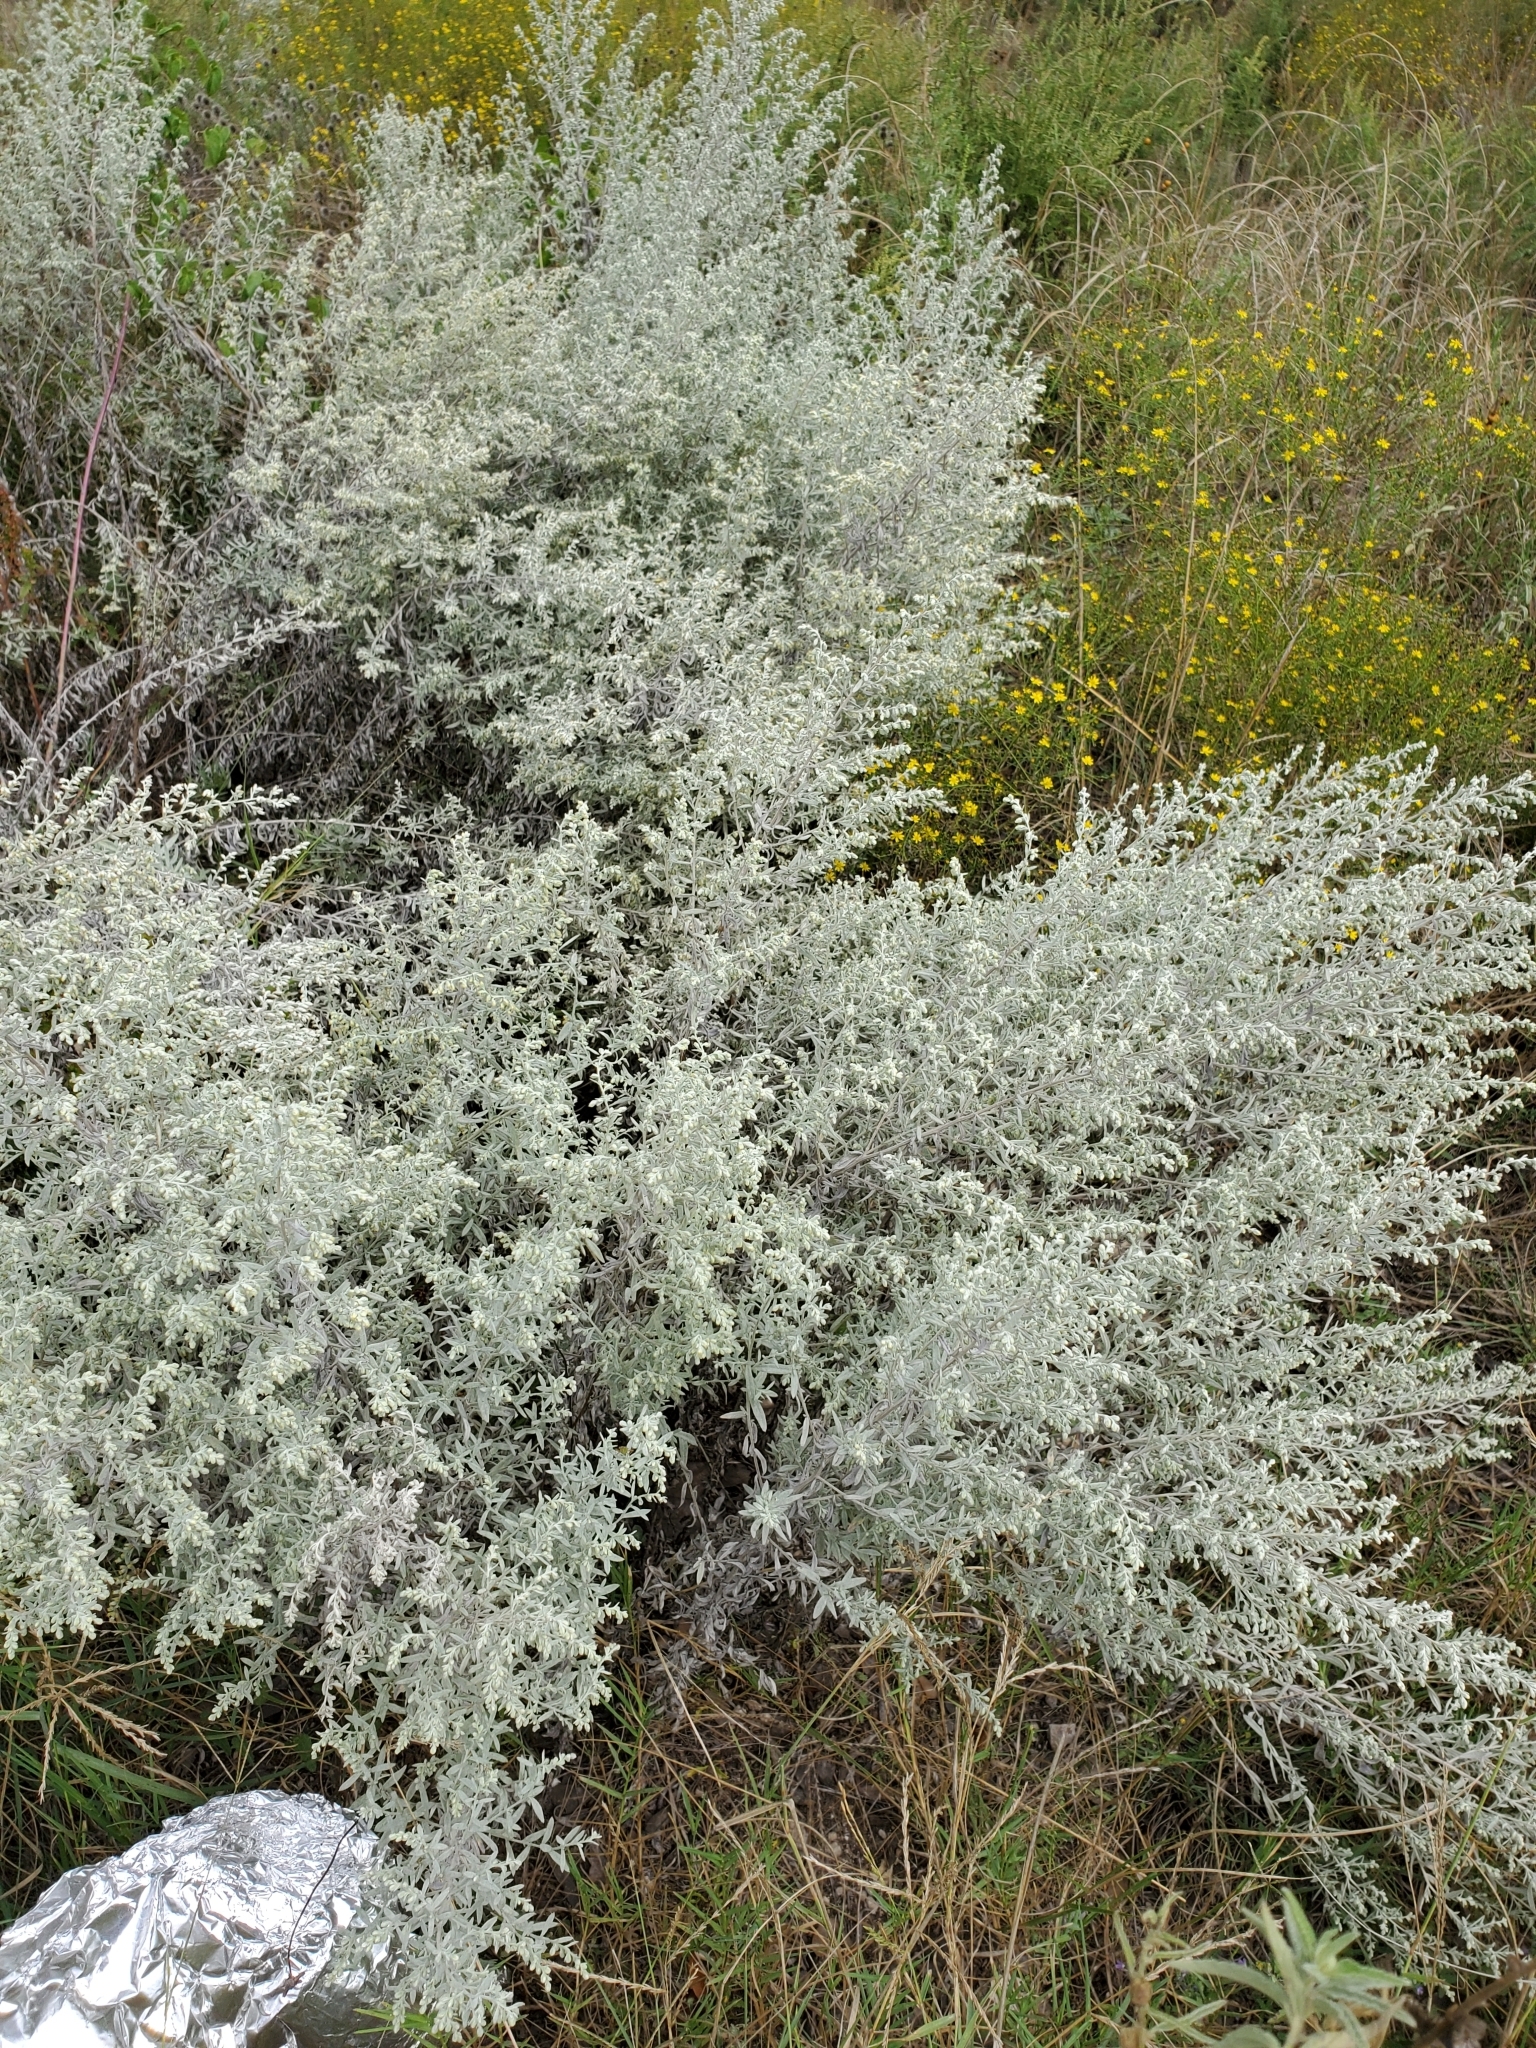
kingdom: Plantae
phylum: Tracheophyta
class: Magnoliopsida
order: Asterales
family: Asteraceae
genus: Artemisia
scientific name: Artemisia ludoviciana
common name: Western mugwort
